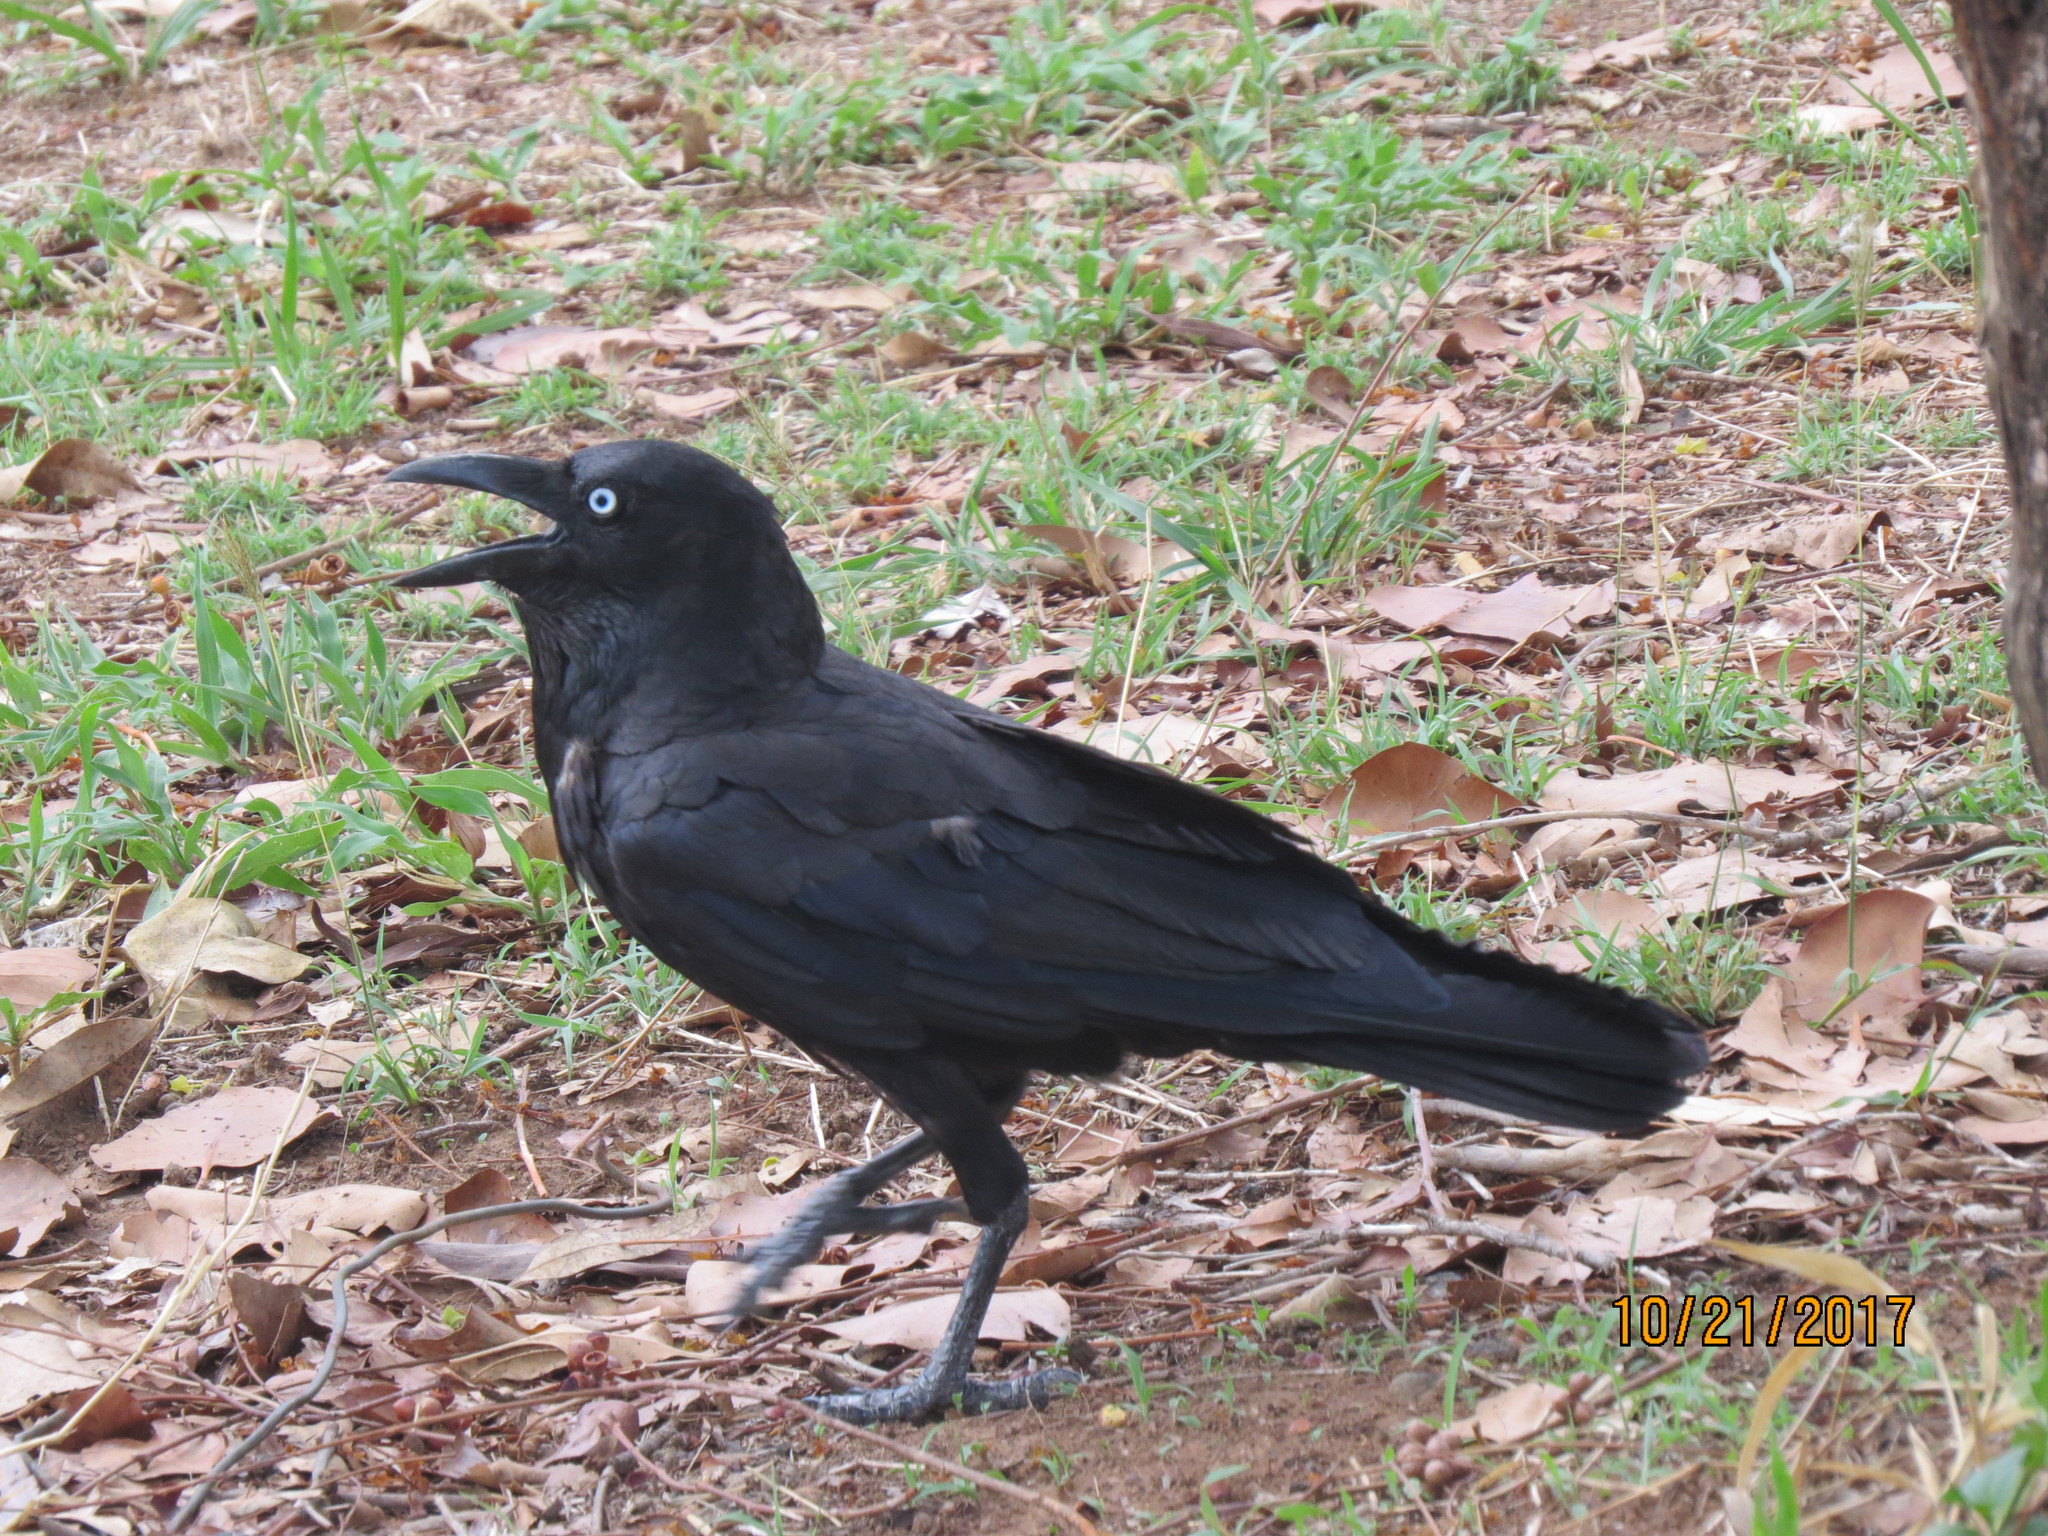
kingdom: Animalia
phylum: Chordata
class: Aves
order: Passeriformes
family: Corvidae
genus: Corvus
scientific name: Corvus orru
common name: Torresian crow
